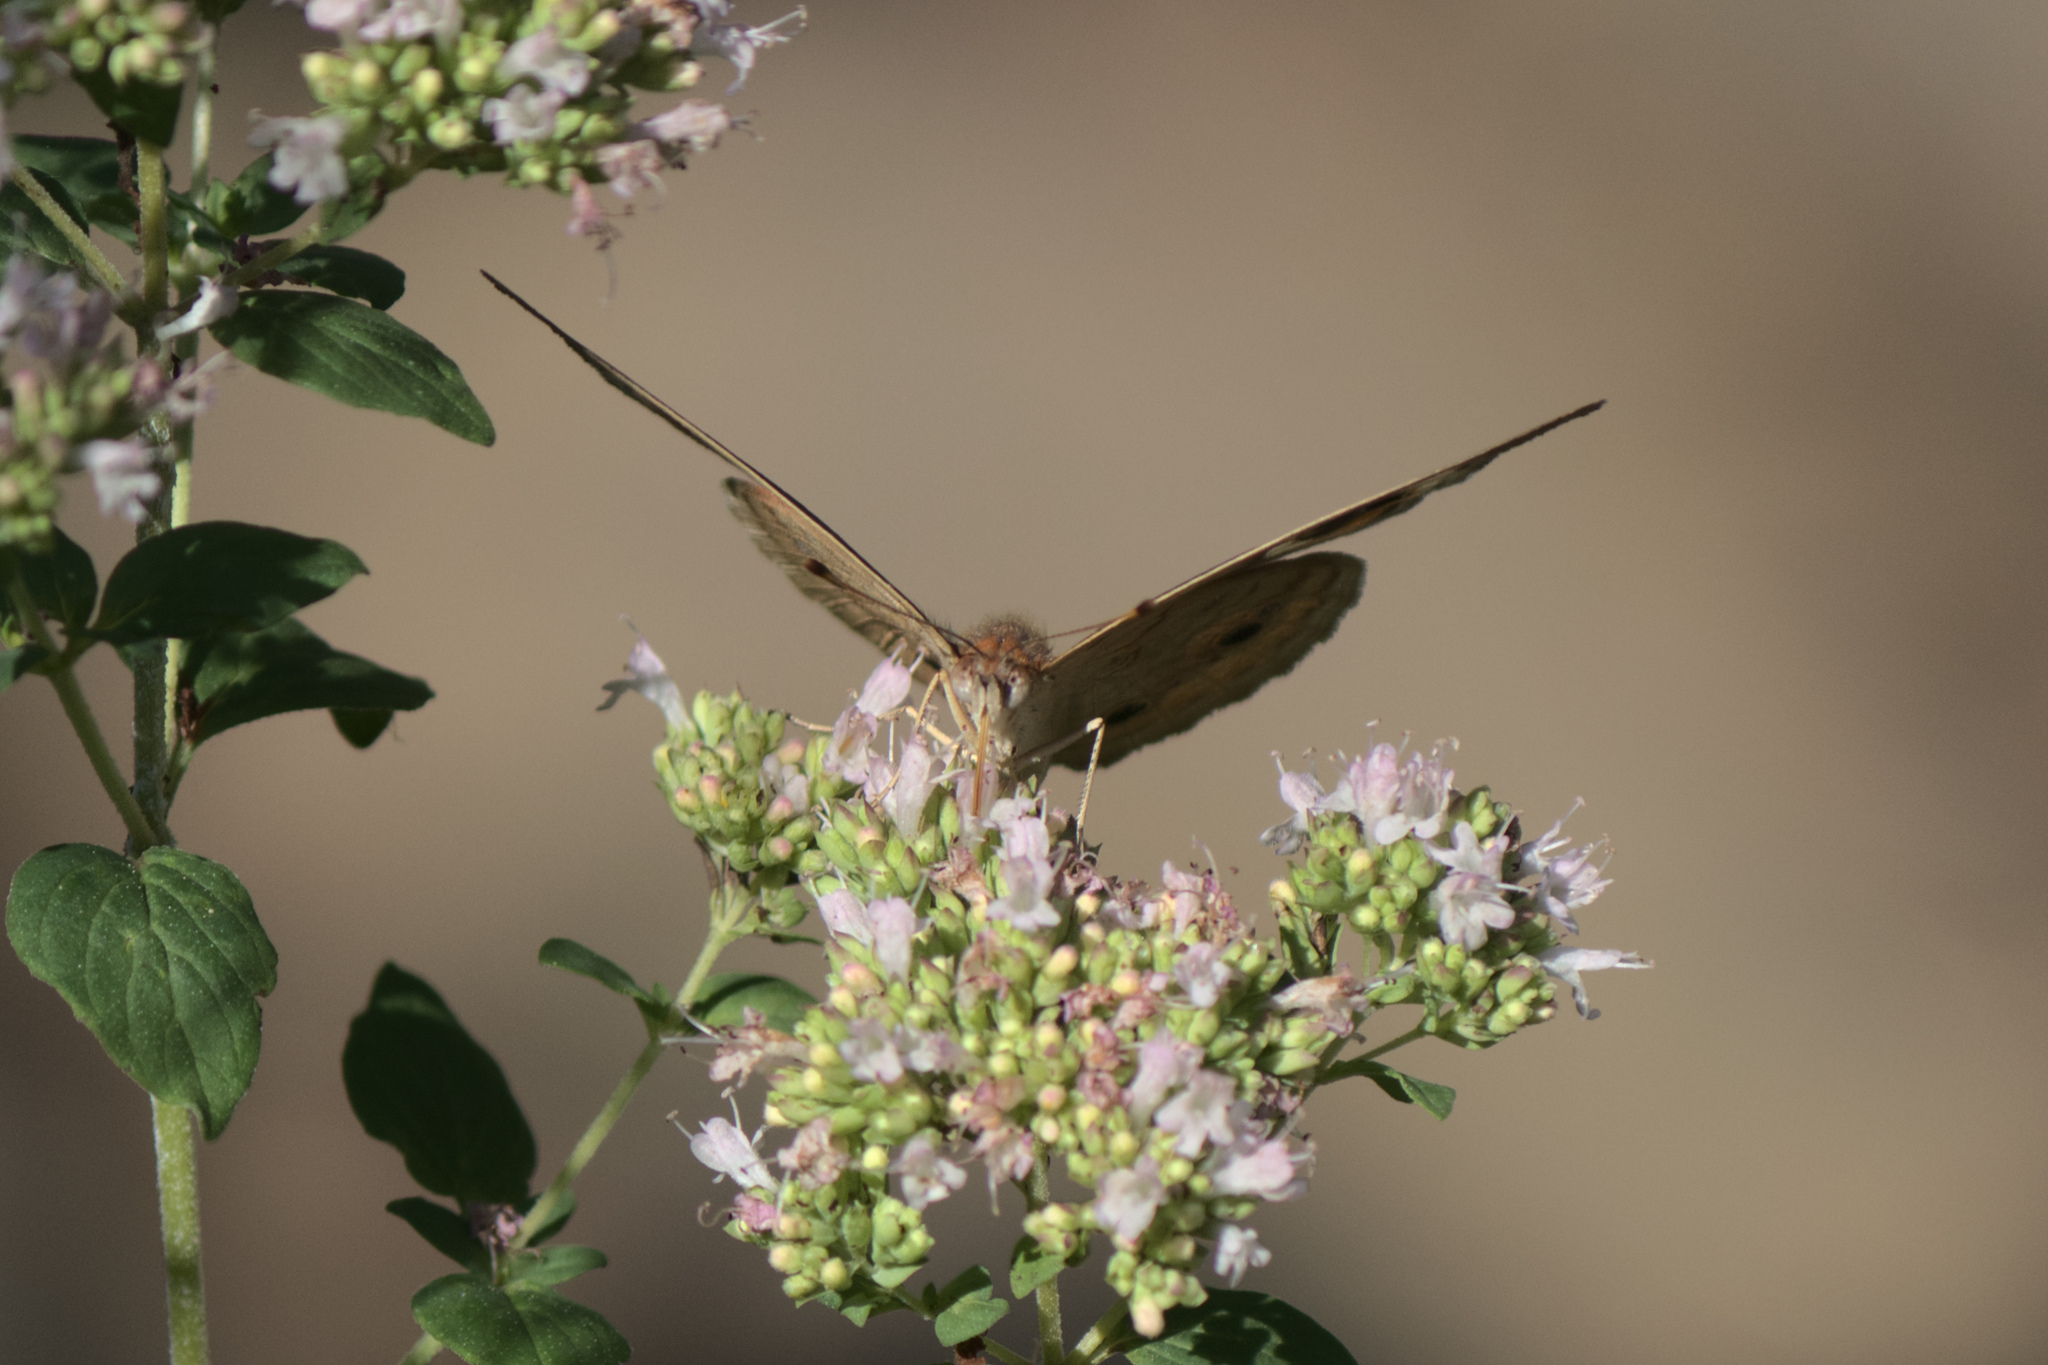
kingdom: Animalia
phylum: Arthropoda
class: Insecta
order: Lepidoptera
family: Nymphalidae
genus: Junonia
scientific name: Junonia coenia
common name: Common buckeye
